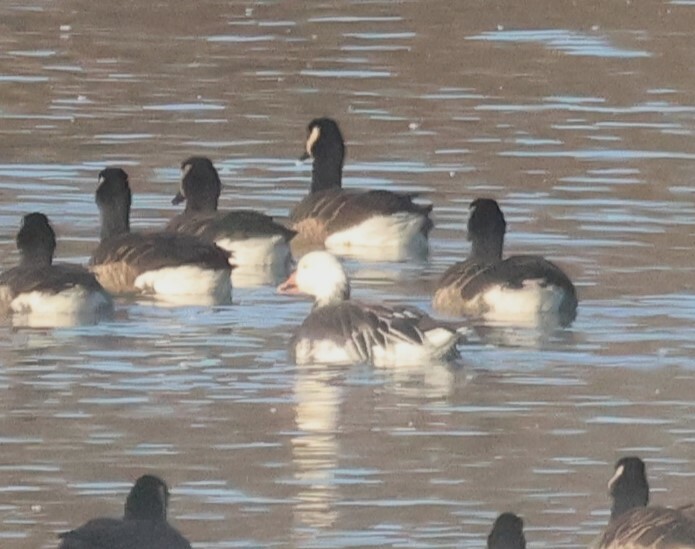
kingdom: Animalia
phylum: Chordata
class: Aves
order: Anseriformes
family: Anatidae
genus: Anser
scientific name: Anser caerulescens
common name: Snow goose
